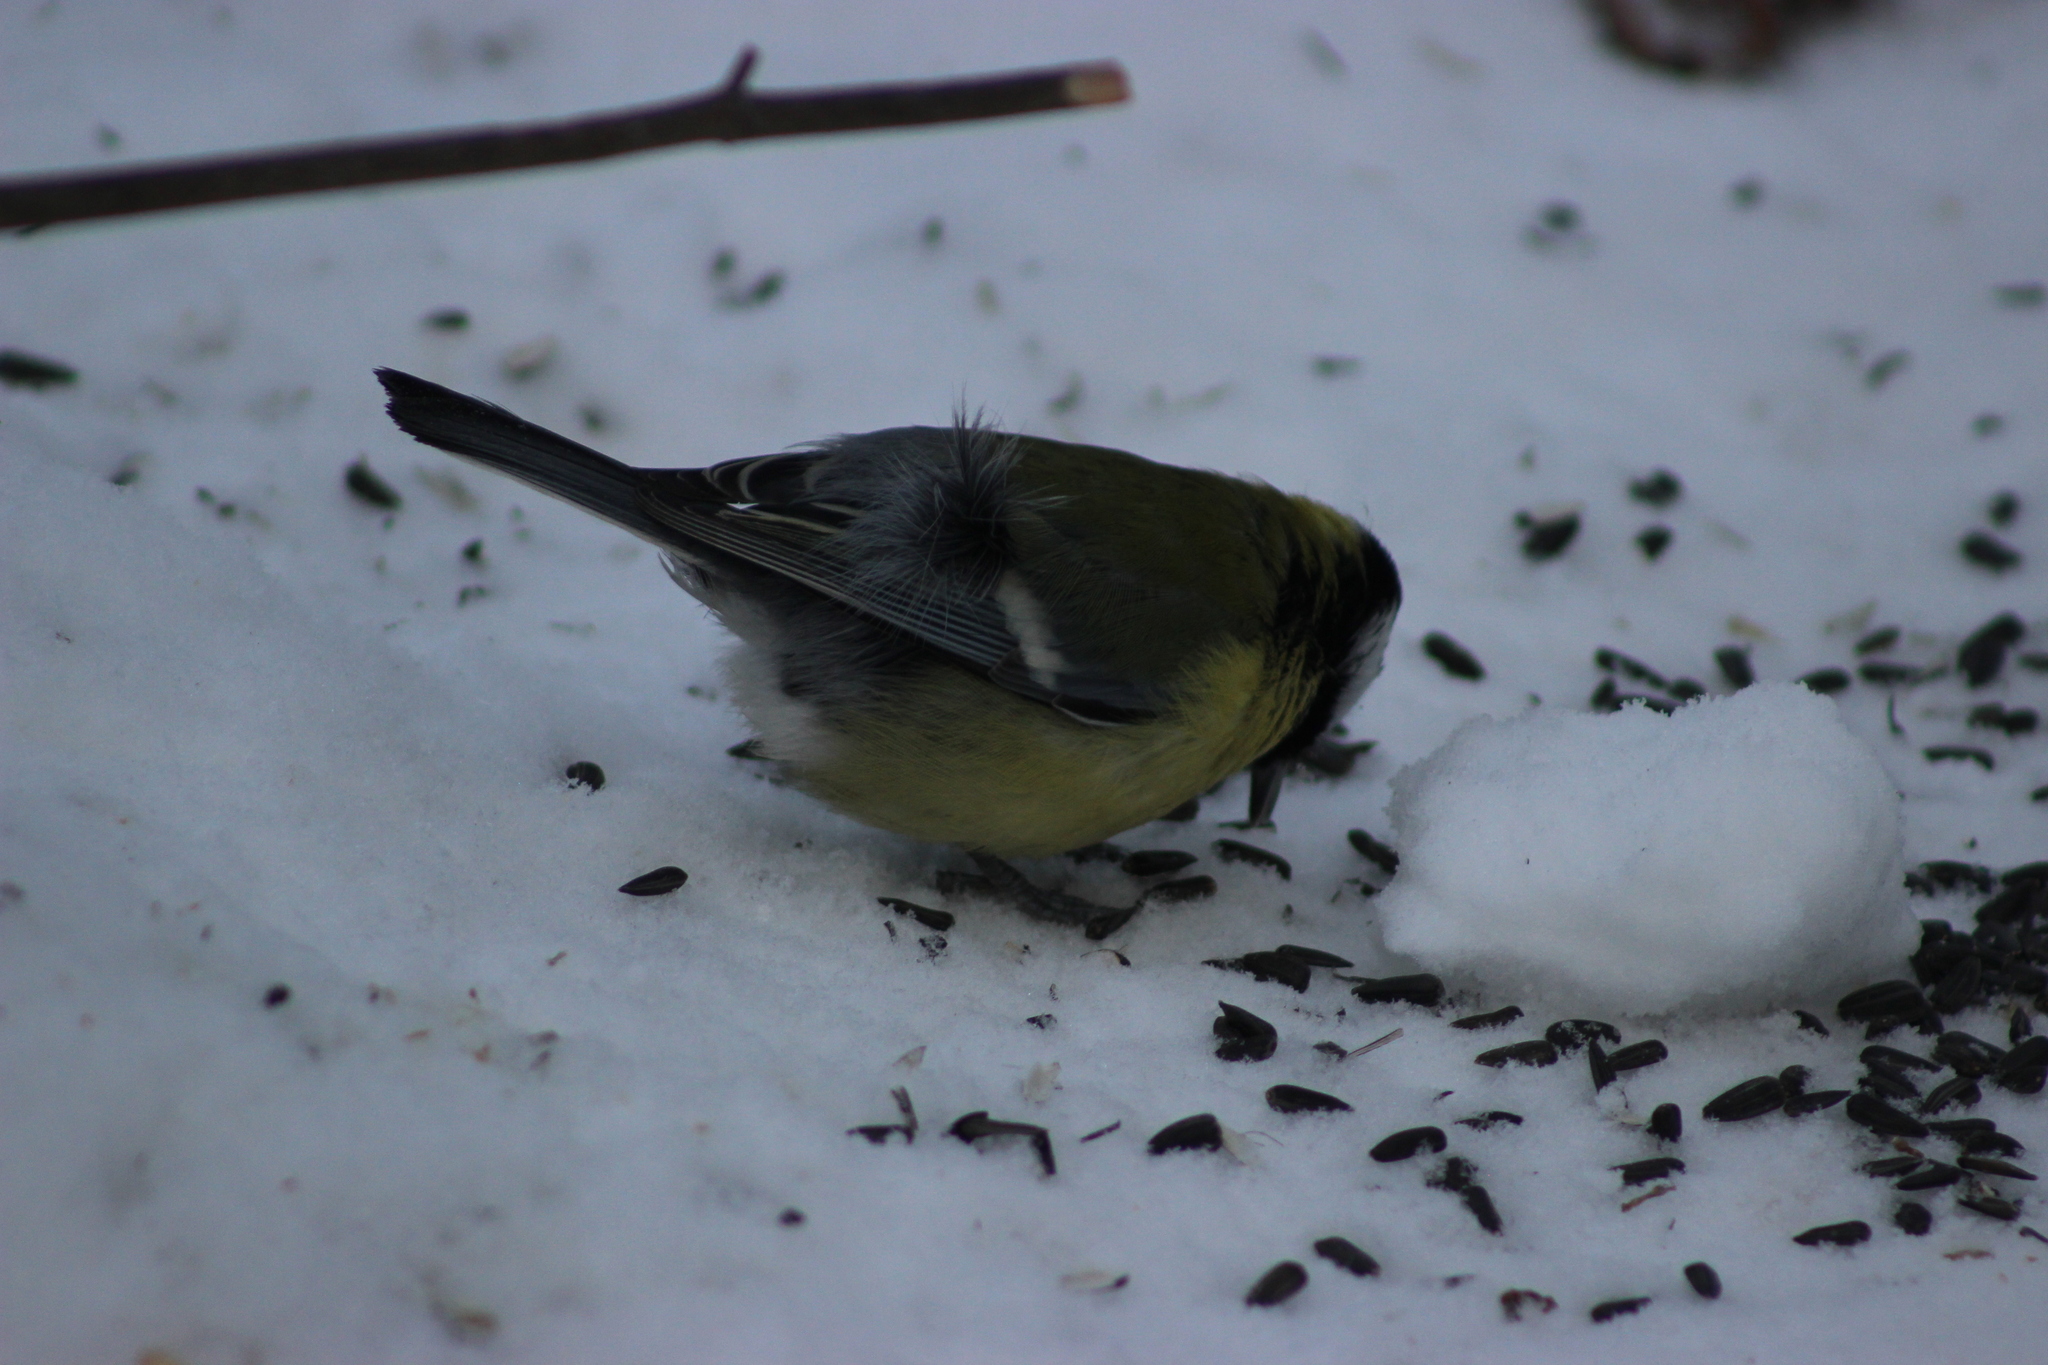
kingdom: Animalia
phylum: Chordata
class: Aves
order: Passeriformes
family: Paridae
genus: Parus
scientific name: Parus major
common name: Great tit
